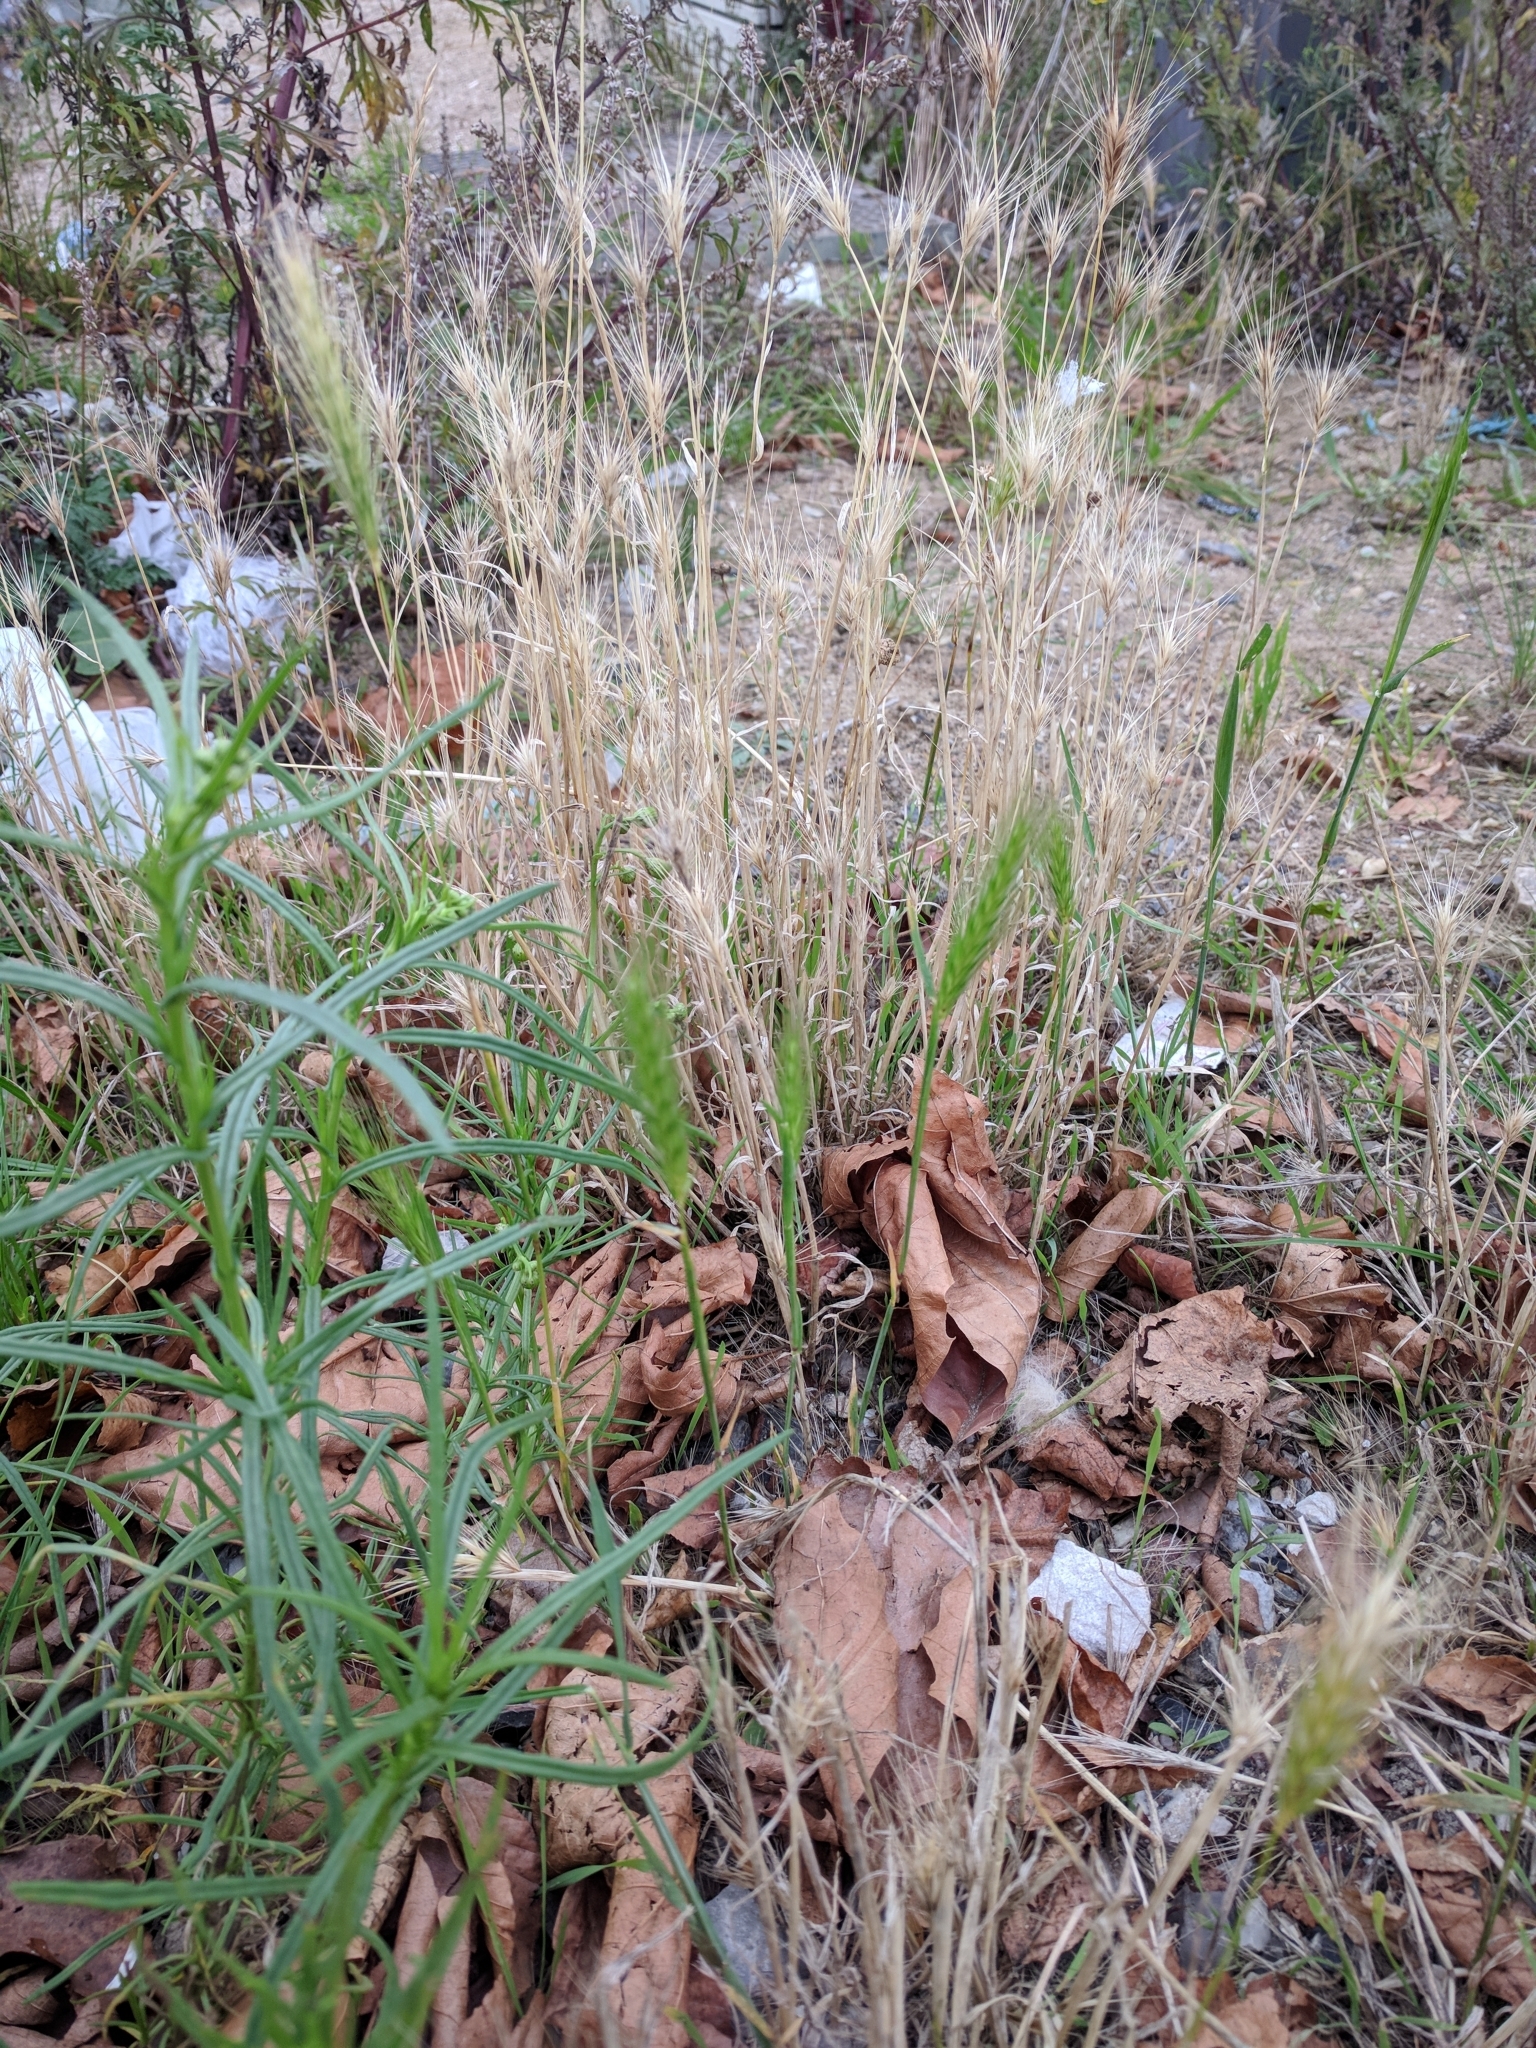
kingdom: Plantae
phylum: Tracheophyta
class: Liliopsida
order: Poales
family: Poaceae
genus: Hordeum
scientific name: Hordeum murinum
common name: Wall barley
